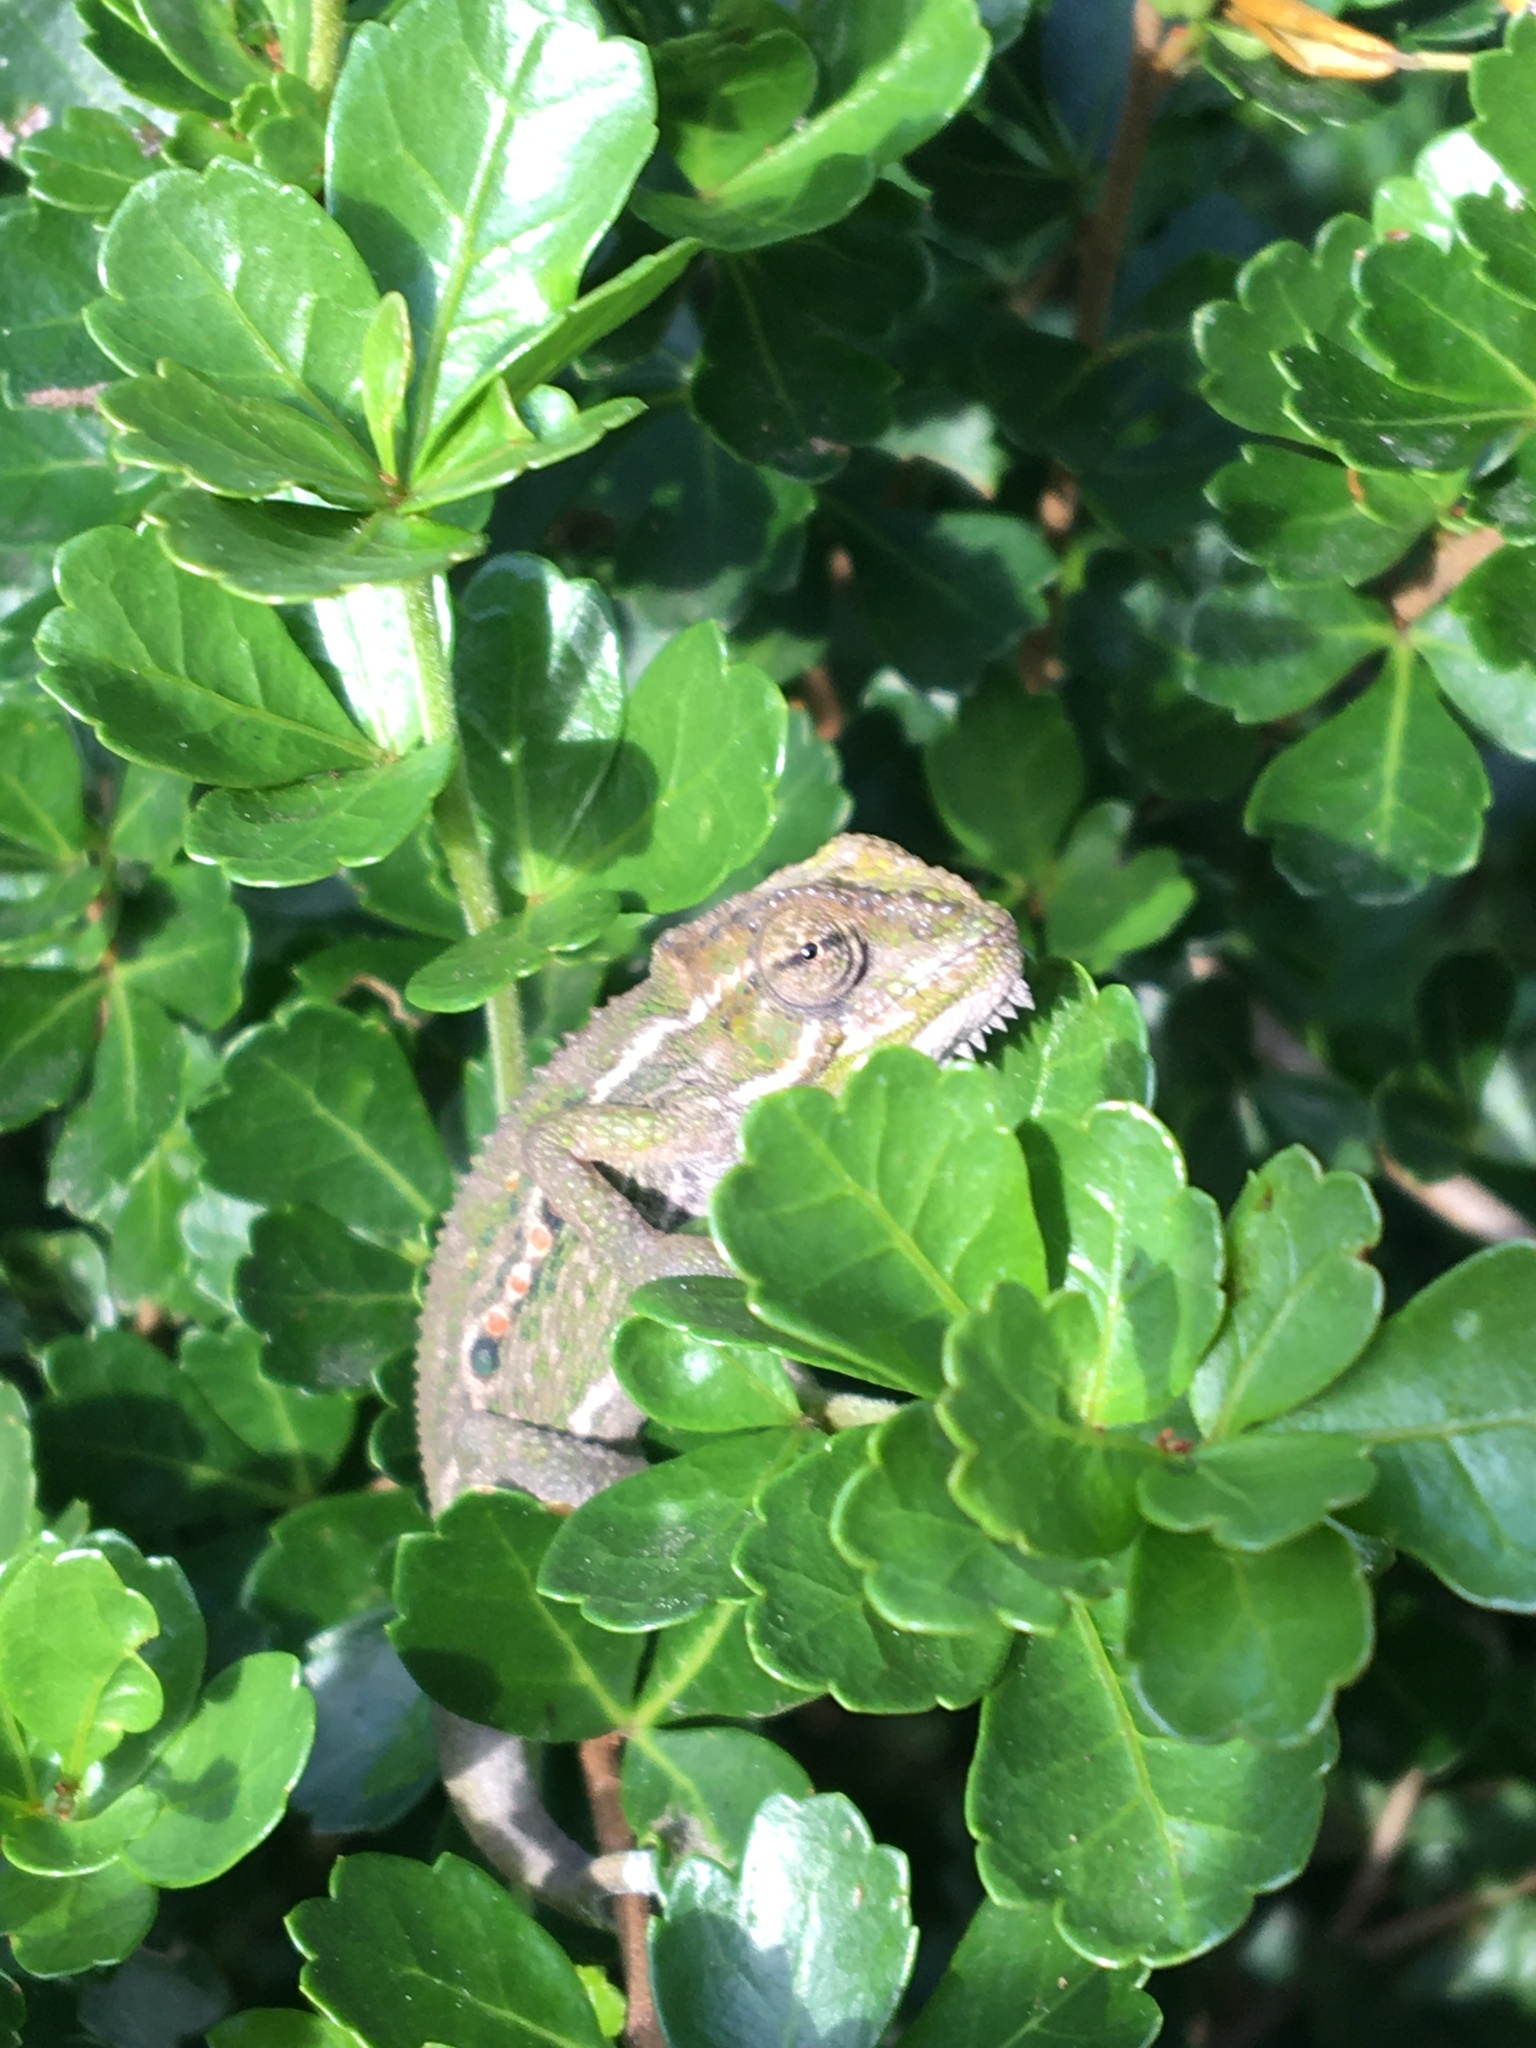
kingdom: Animalia
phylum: Chordata
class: Squamata
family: Chamaeleonidae
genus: Bradypodion
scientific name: Bradypodion pumilum
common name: Cape dwarf chameleon
